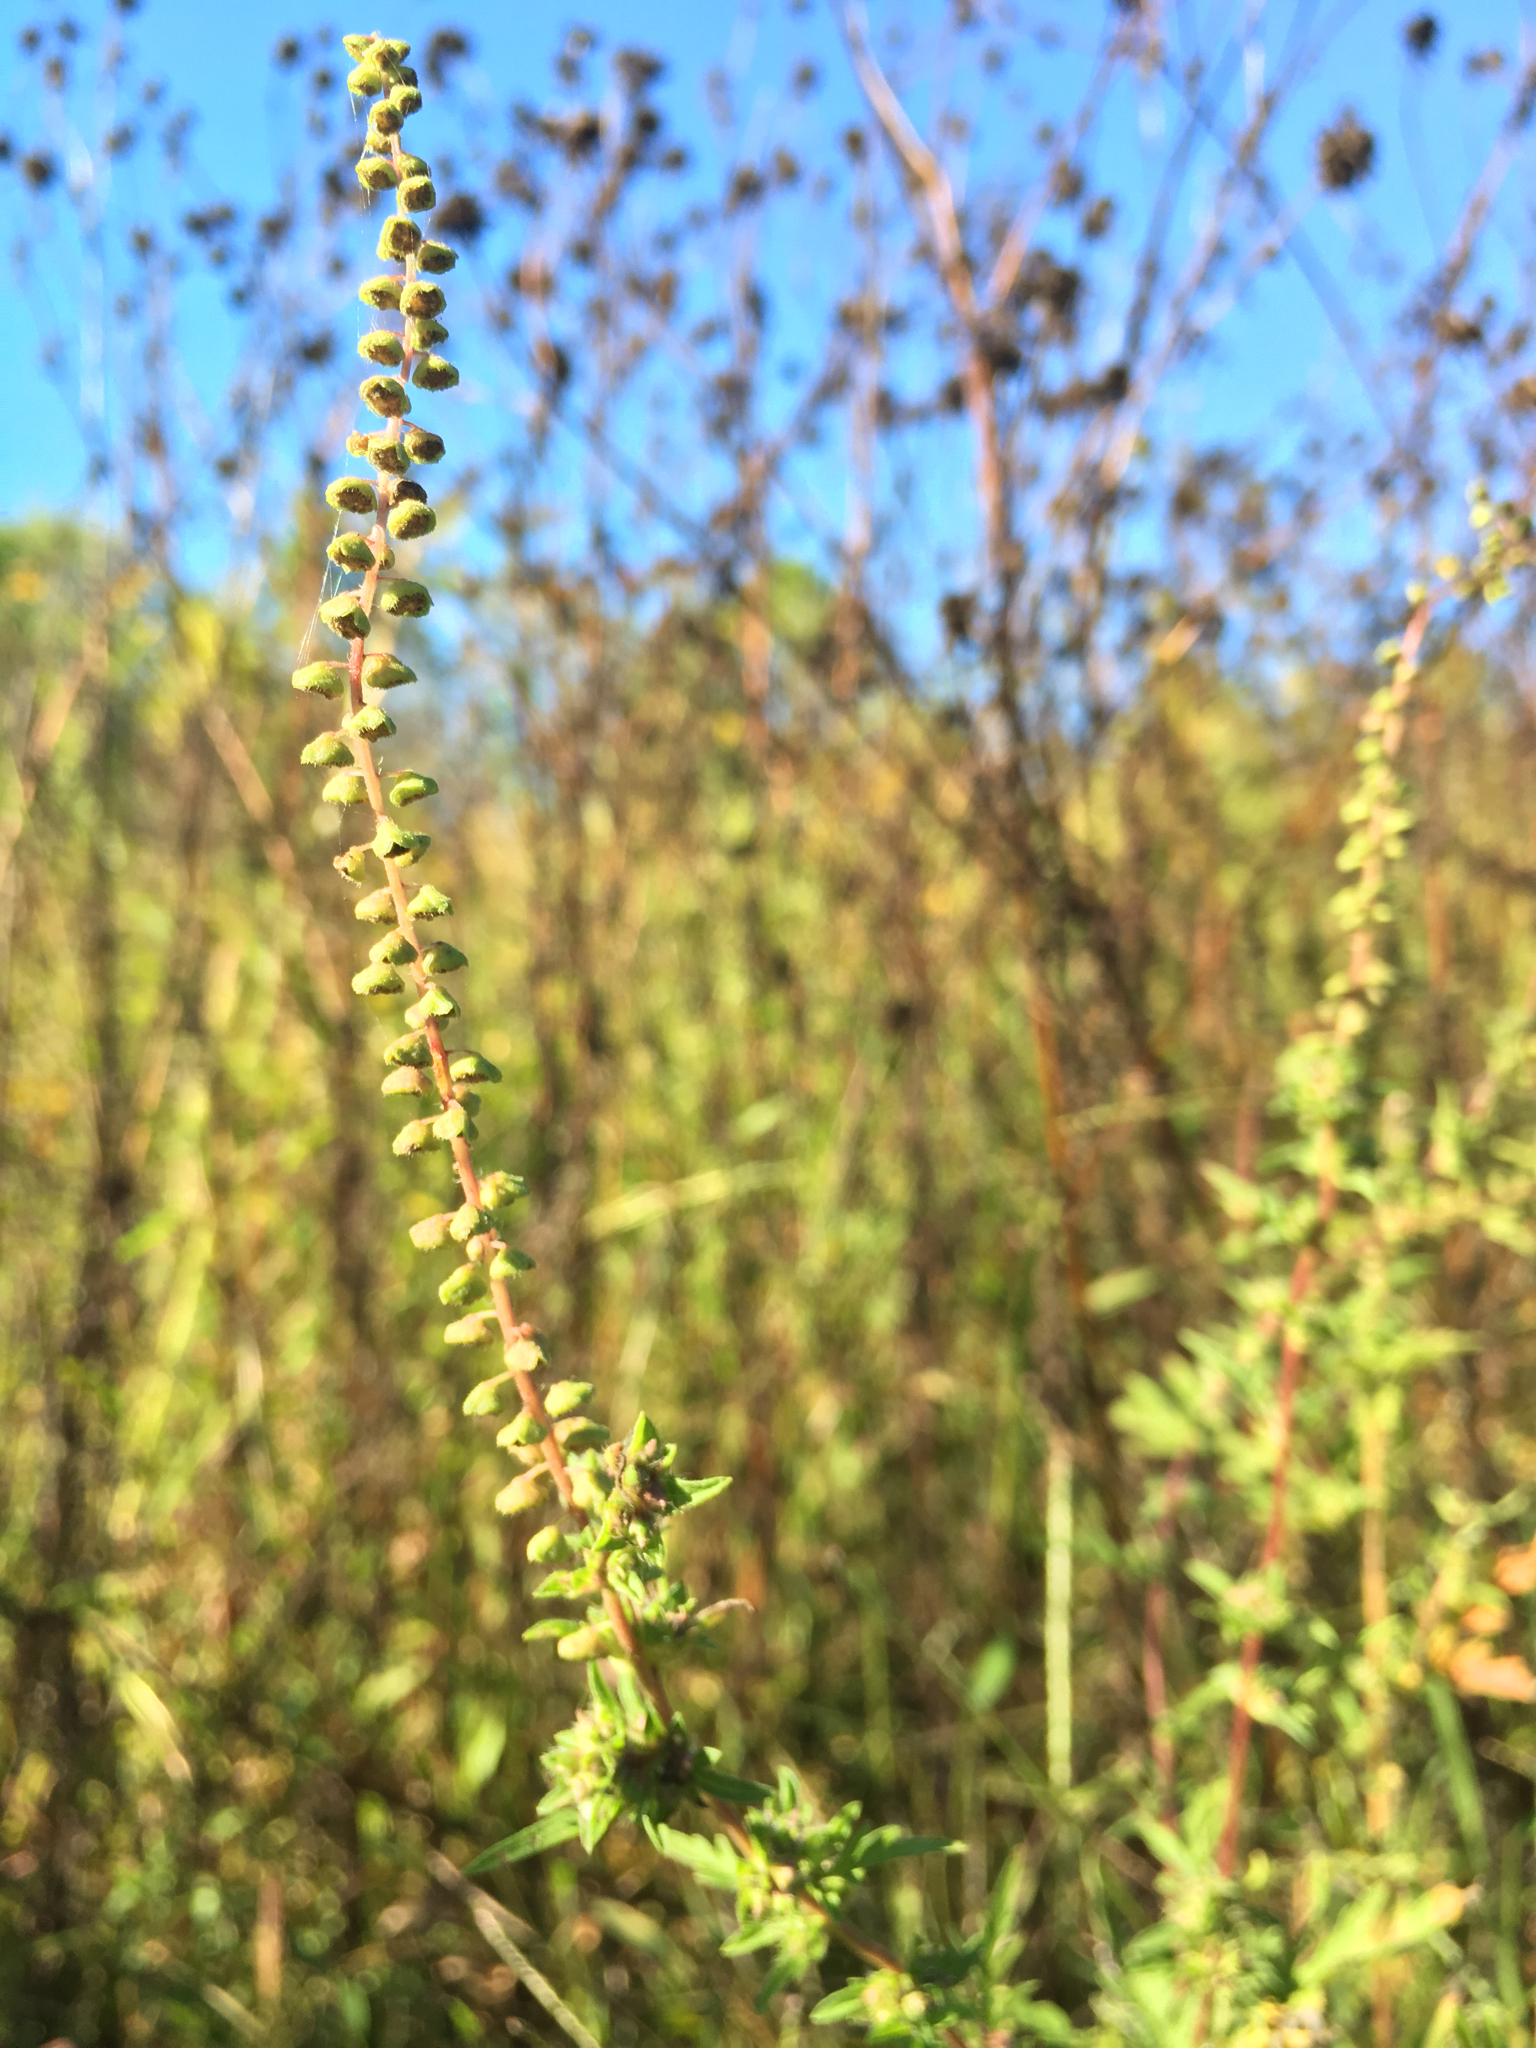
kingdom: Plantae
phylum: Tracheophyta
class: Magnoliopsida
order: Asterales
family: Asteraceae
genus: Ambrosia
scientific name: Ambrosia artemisiifolia
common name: Annual ragweed
